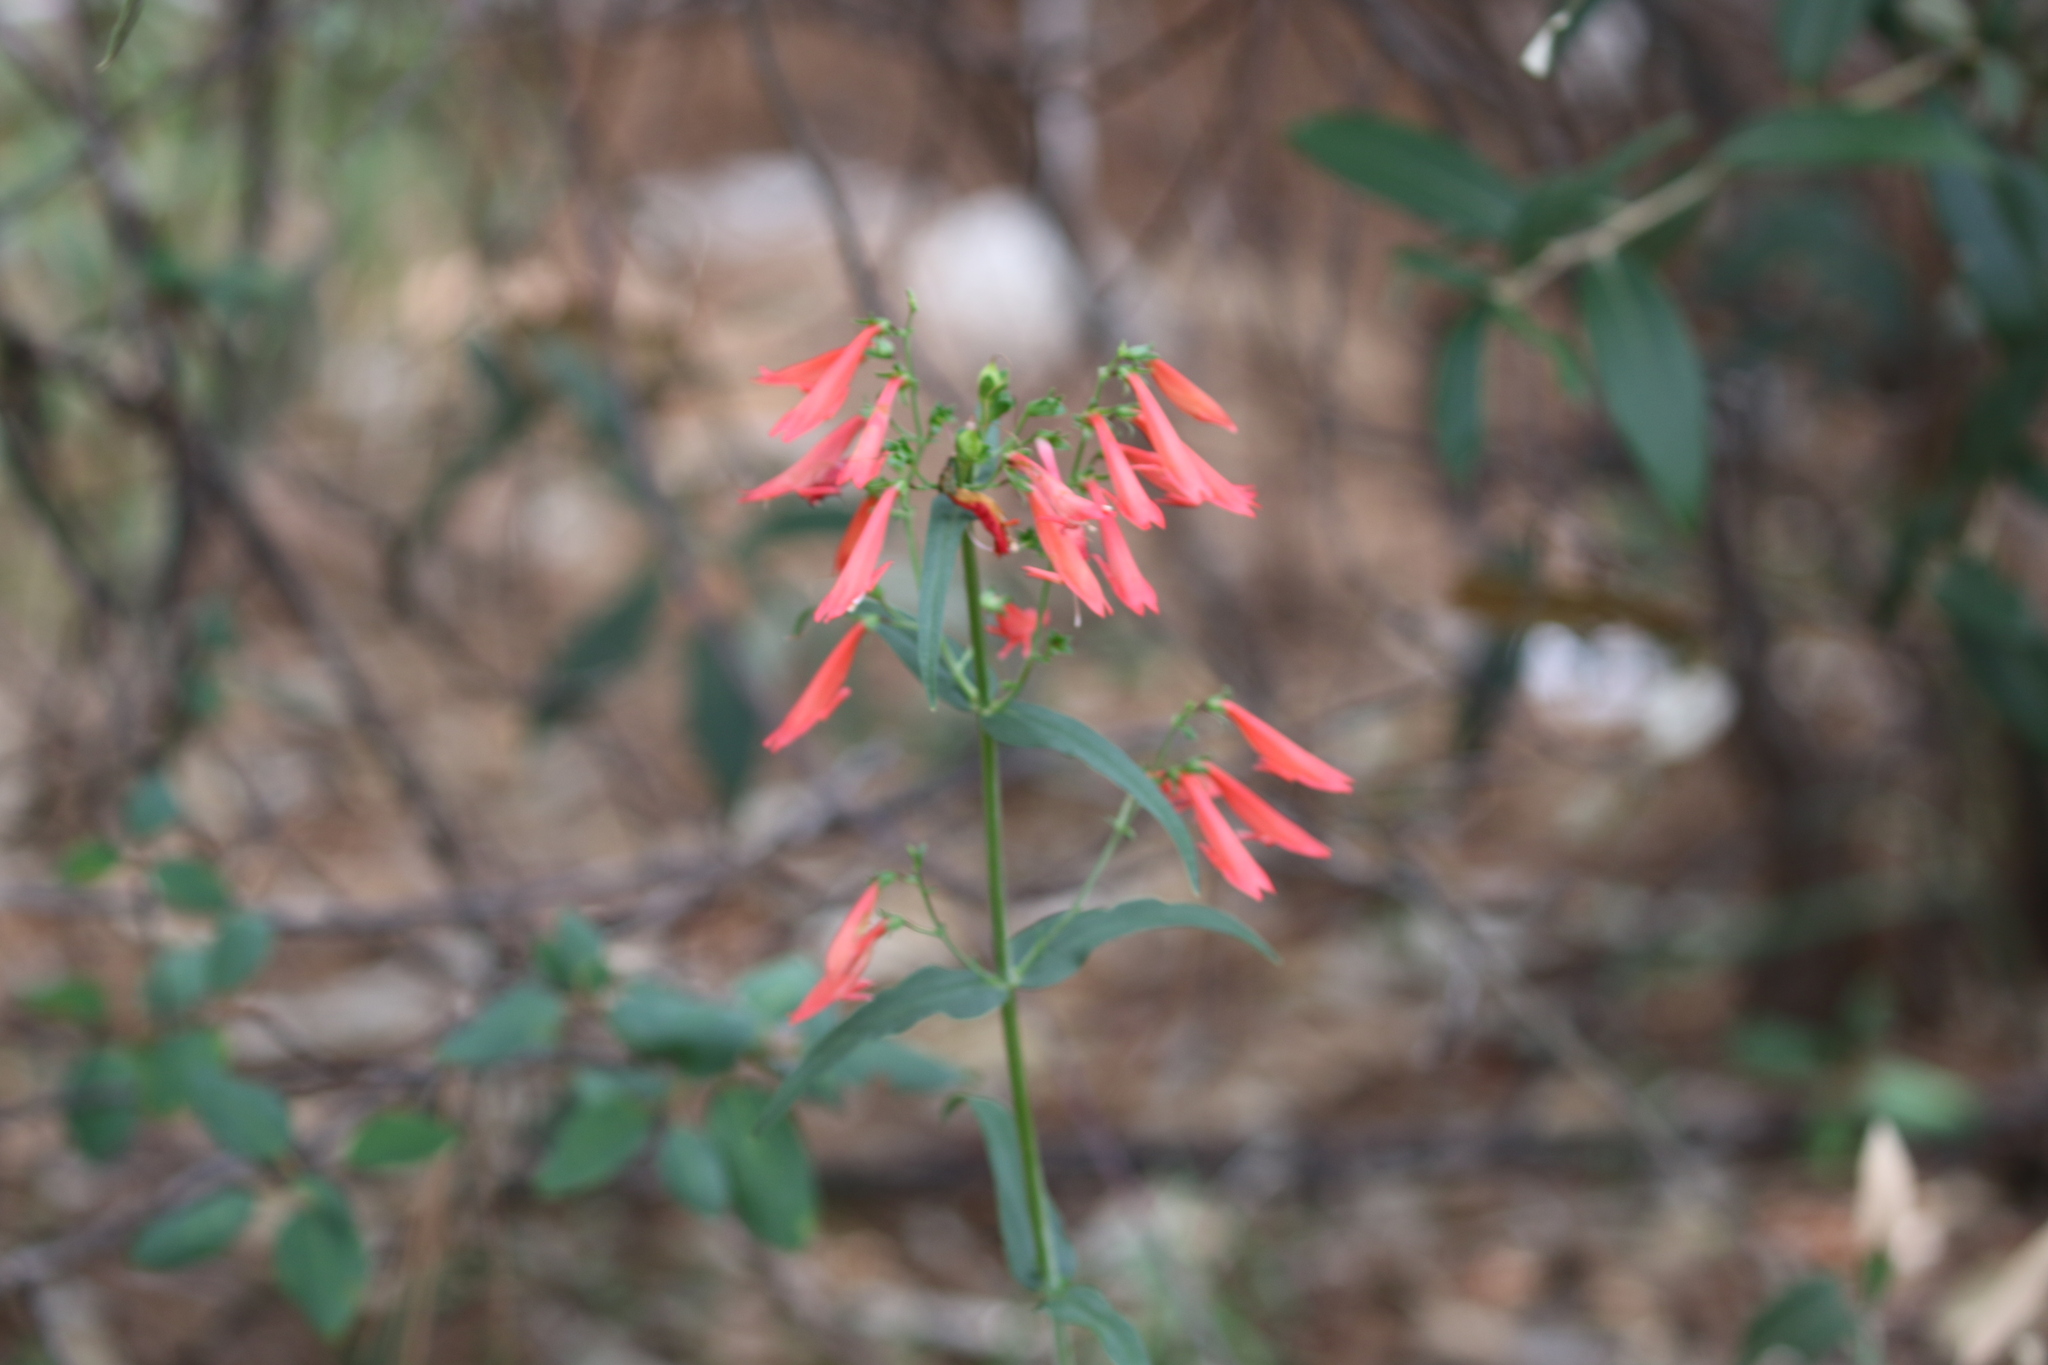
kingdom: Plantae
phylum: Tracheophyta
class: Magnoliopsida
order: Lamiales
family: Plantaginaceae
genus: Penstemon
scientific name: Penstemon barbatus
